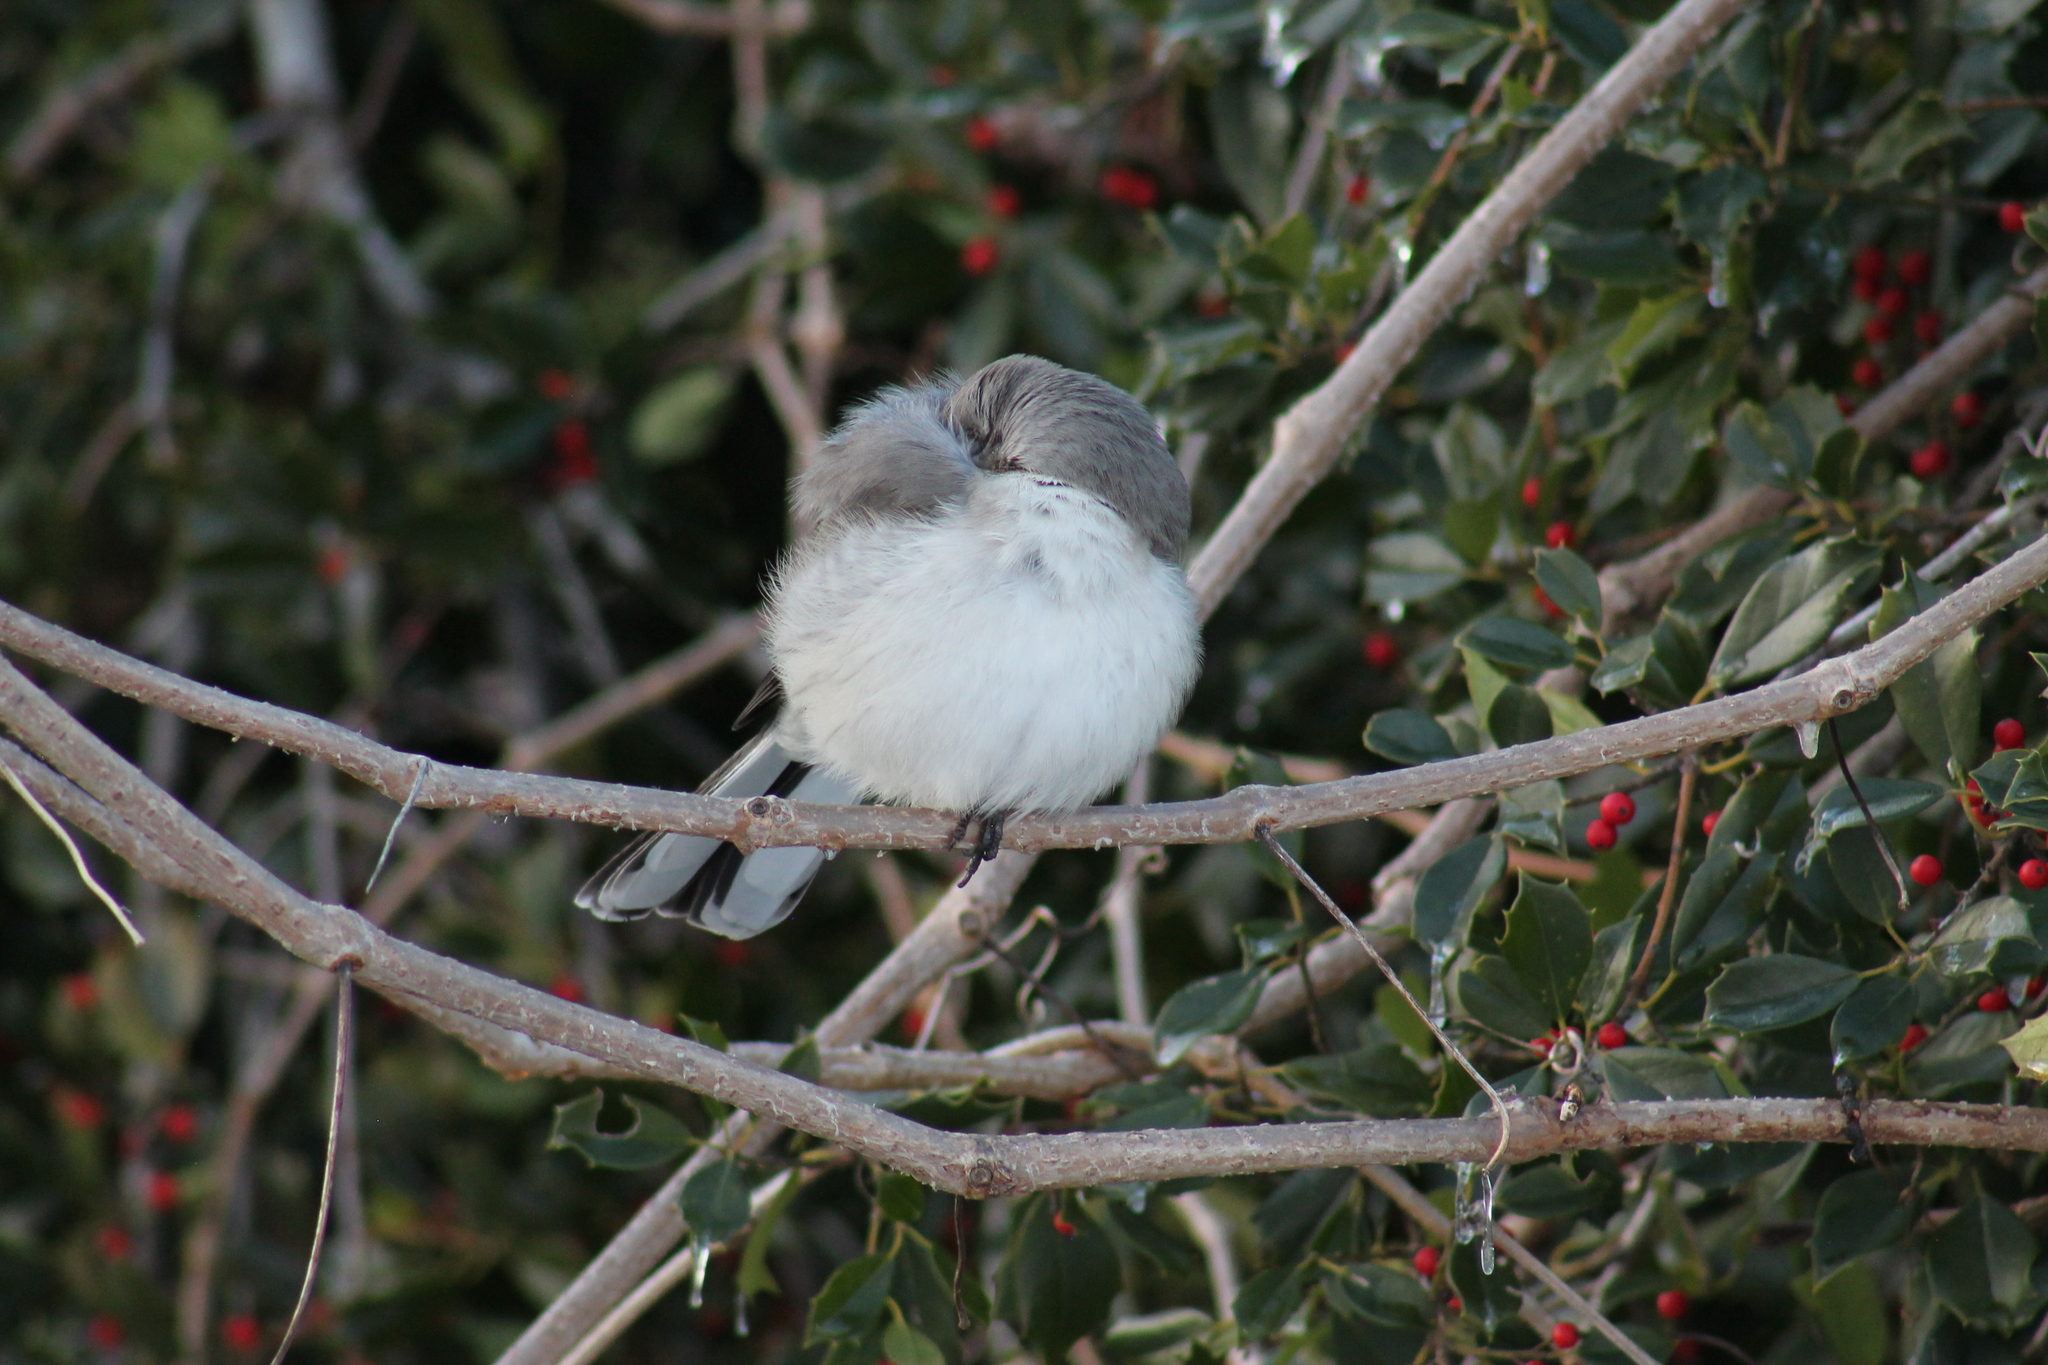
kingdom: Animalia
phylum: Chordata
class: Aves
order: Passeriformes
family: Mimidae
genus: Mimus
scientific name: Mimus polyglottos
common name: Northern mockingbird
